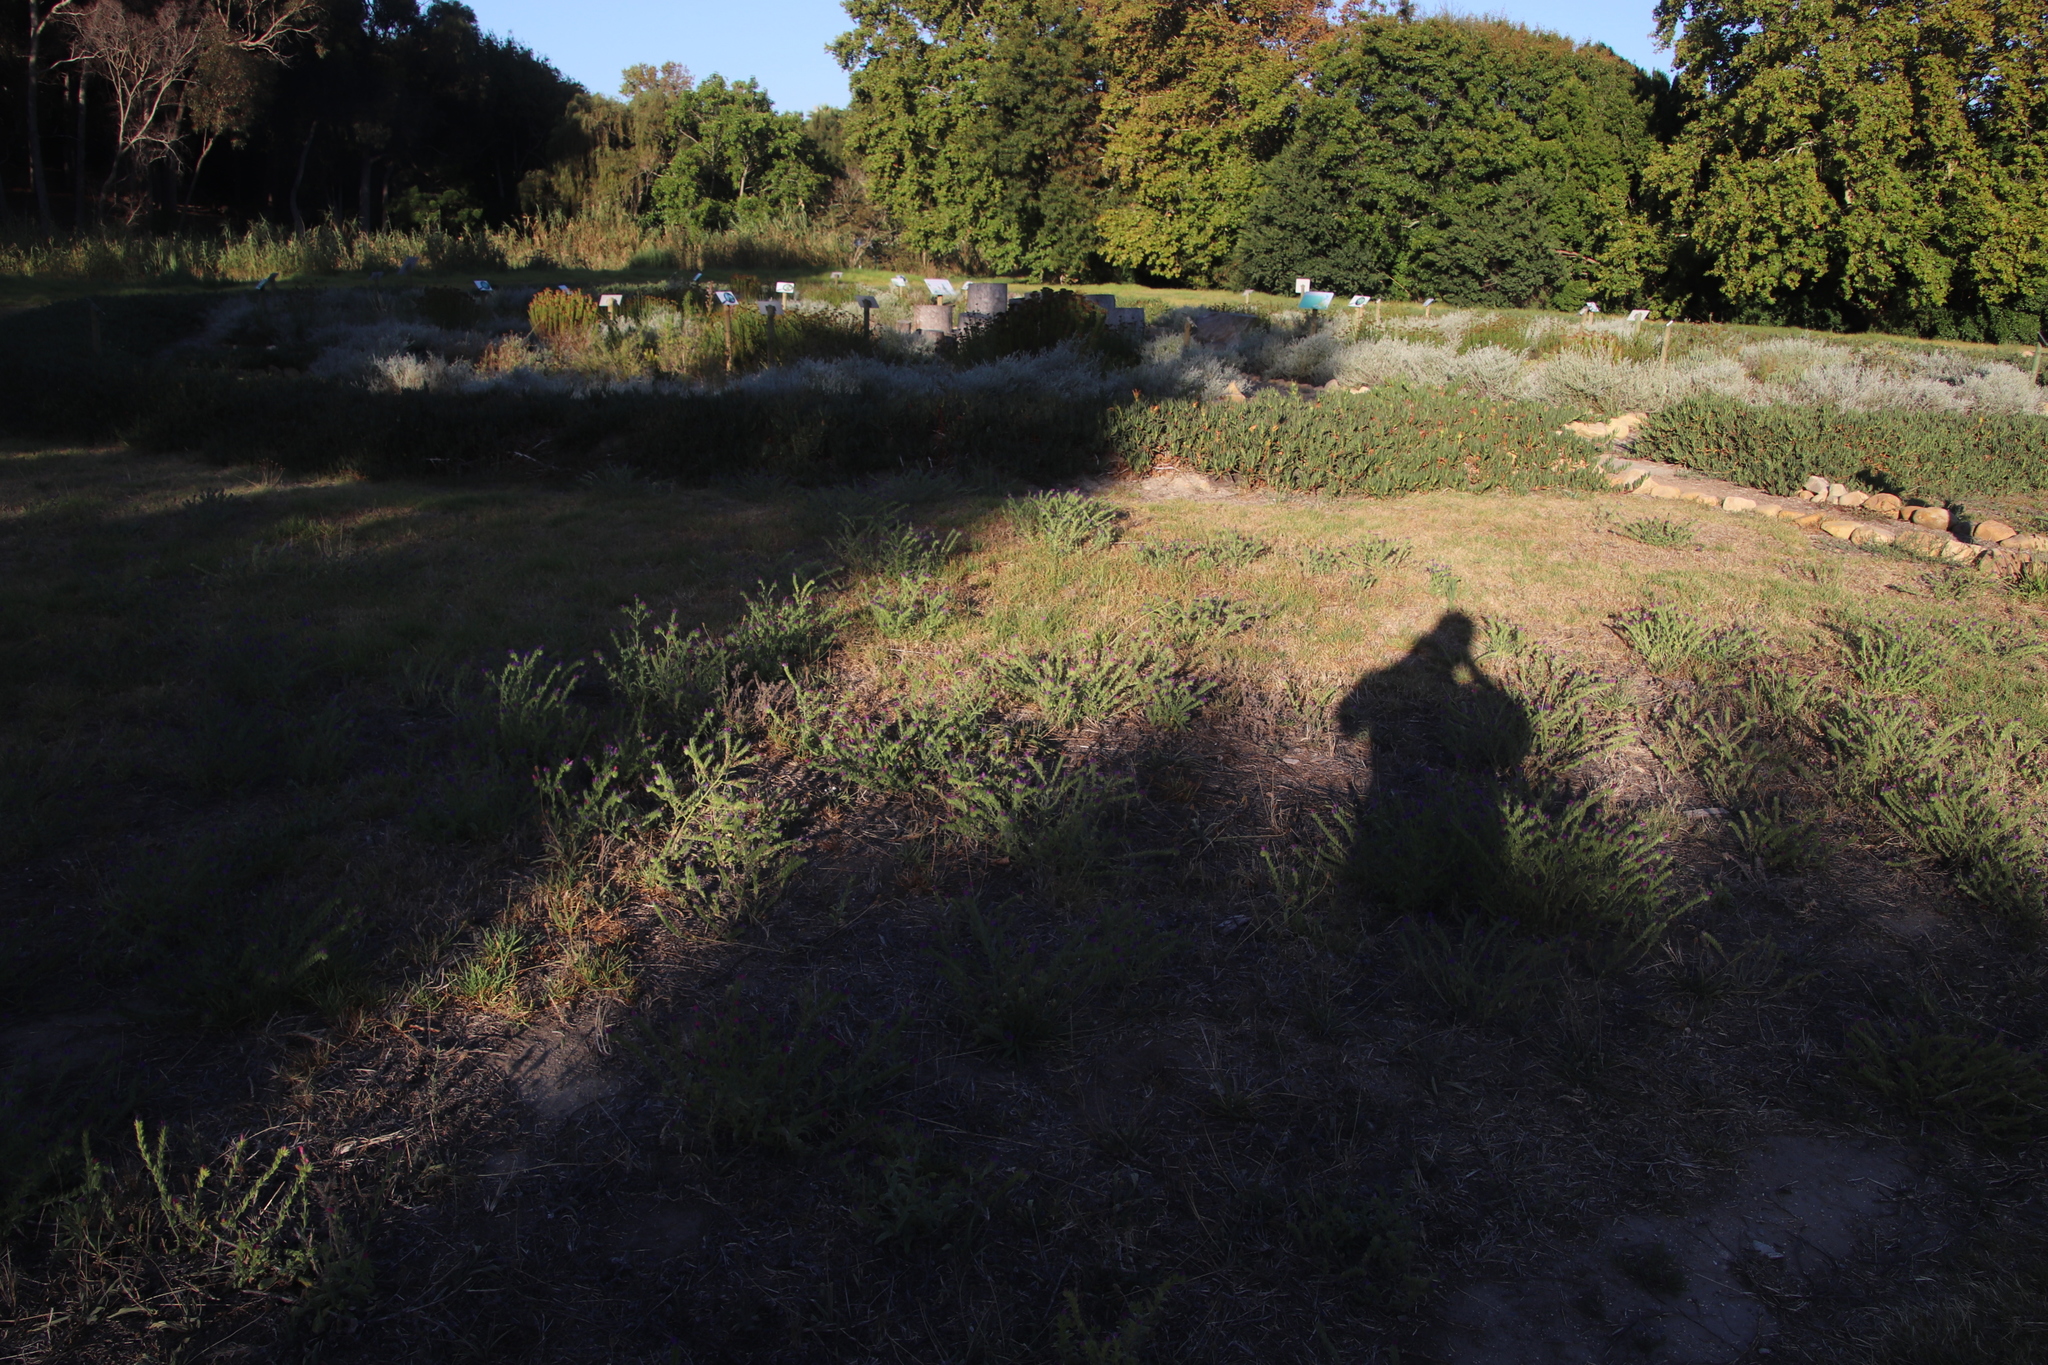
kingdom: Plantae
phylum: Tracheophyta
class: Magnoliopsida
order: Boraginales
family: Boraginaceae
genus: Echium
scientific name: Echium plantagineum
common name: Purple viper's-bugloss
